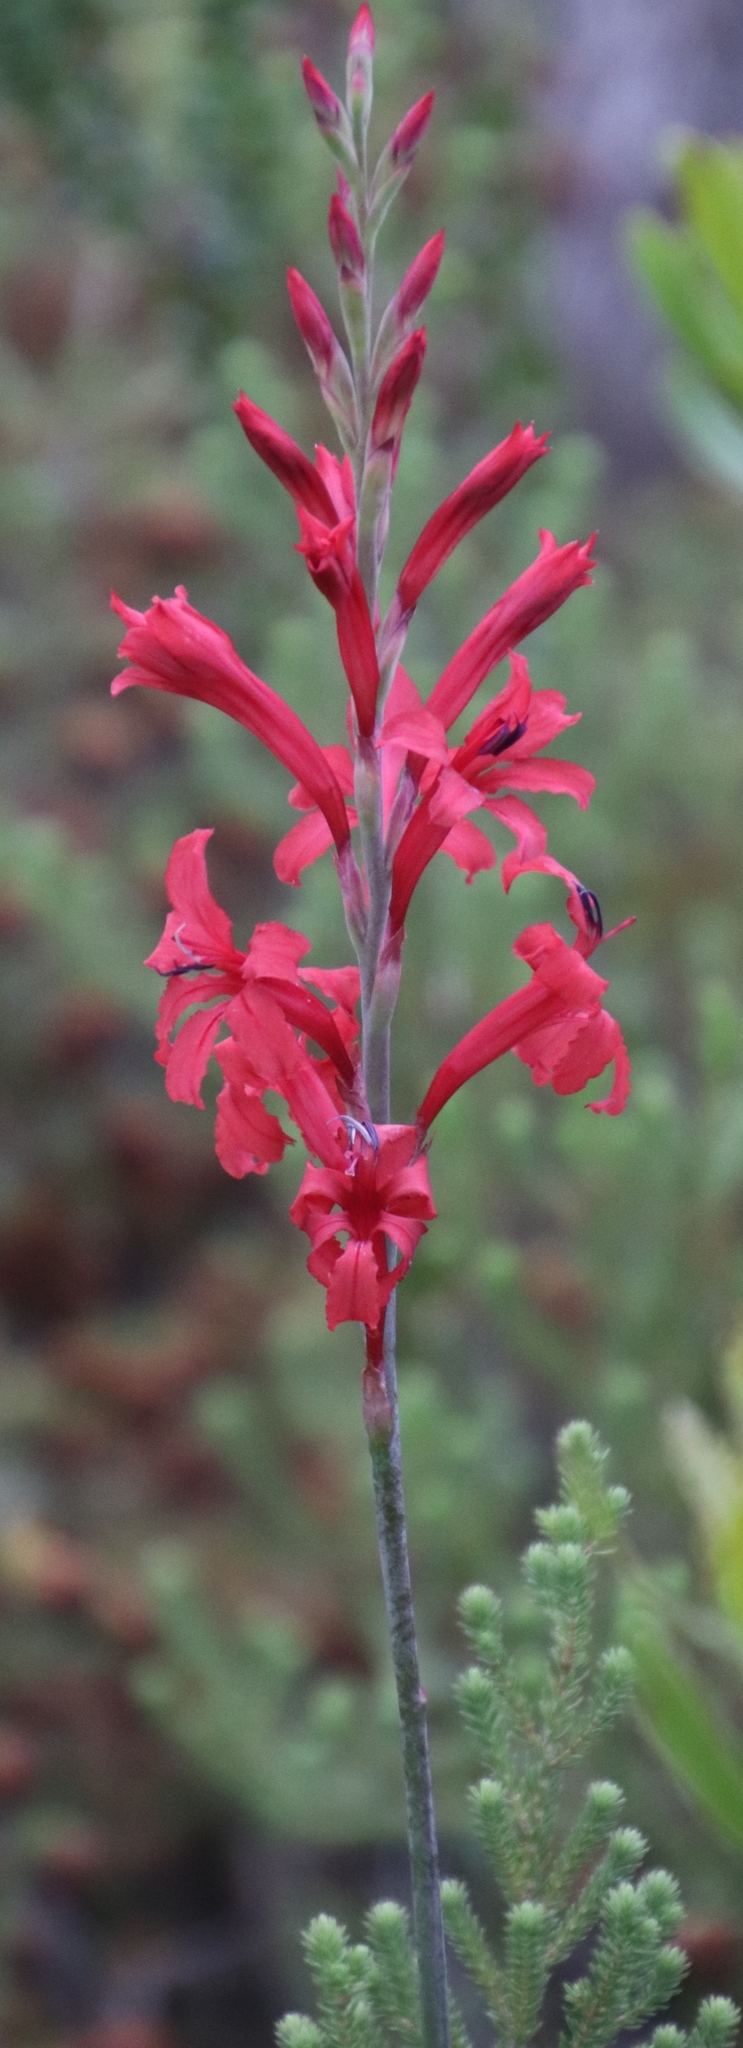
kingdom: Plantae
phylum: Tracheophyta
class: Liliopsida
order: Asparagales
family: Iridaceae
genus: Tritoniopsis
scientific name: Tritoniopsis pulchra
